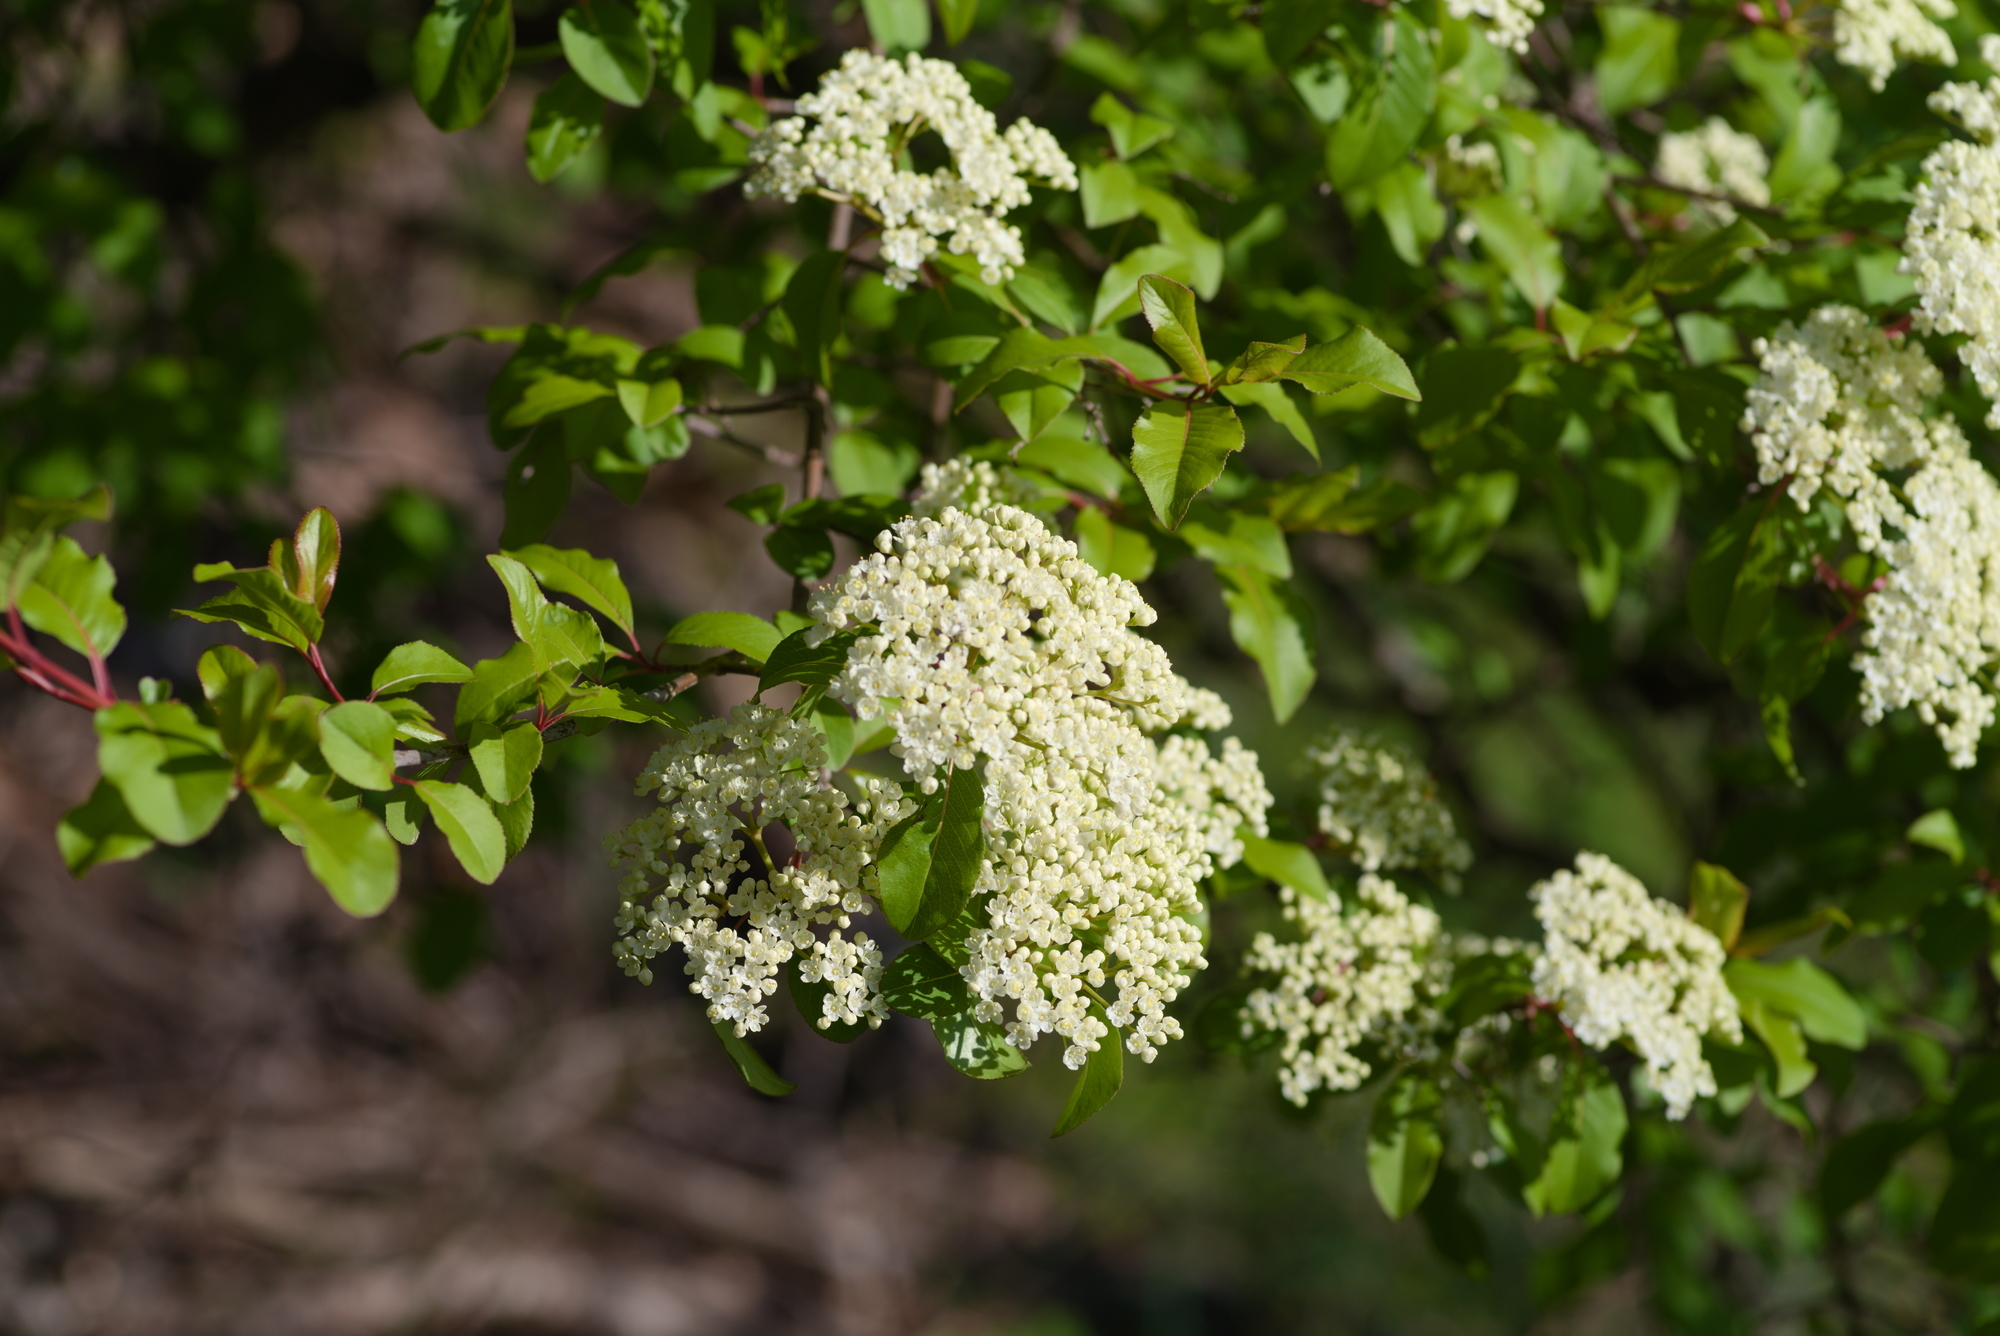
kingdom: Plantae
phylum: Tracheophyta
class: Magnoliopsida
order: Dipsacales
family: Viburnaceae
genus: Viburnum
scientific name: Viburnum prunifolium
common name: Black haw
